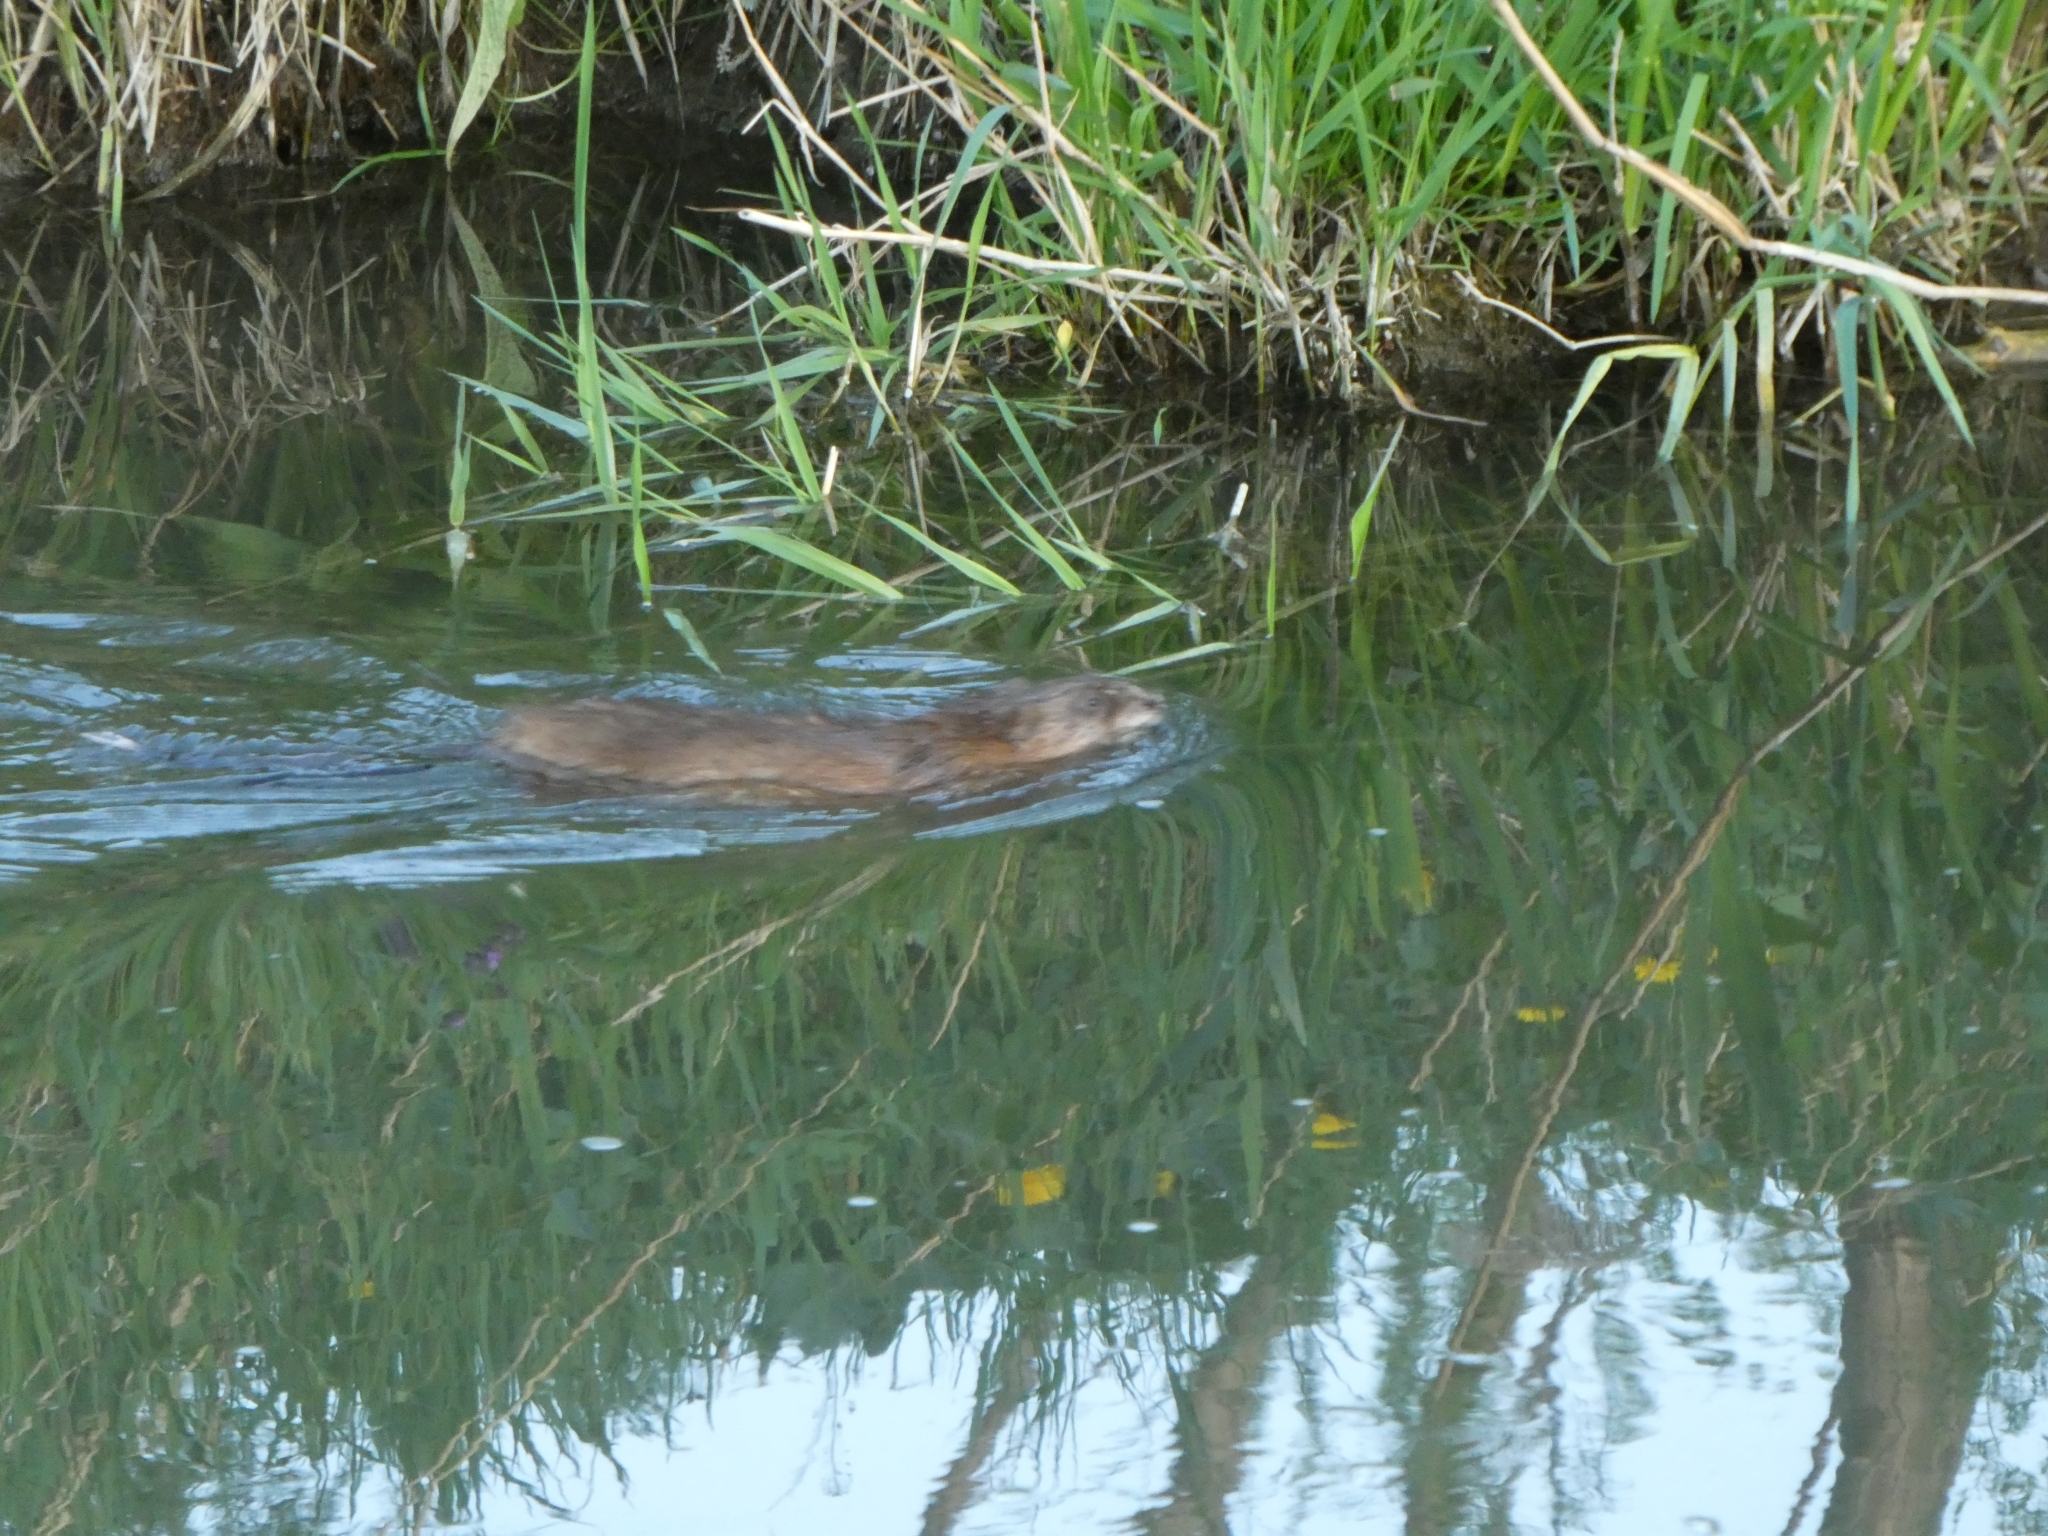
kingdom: Animalia
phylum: Chordata
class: Mammalia
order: Rodentia
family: Cricetidae
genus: Ondatra
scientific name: Ondatra zibethicus
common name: Muskrat
